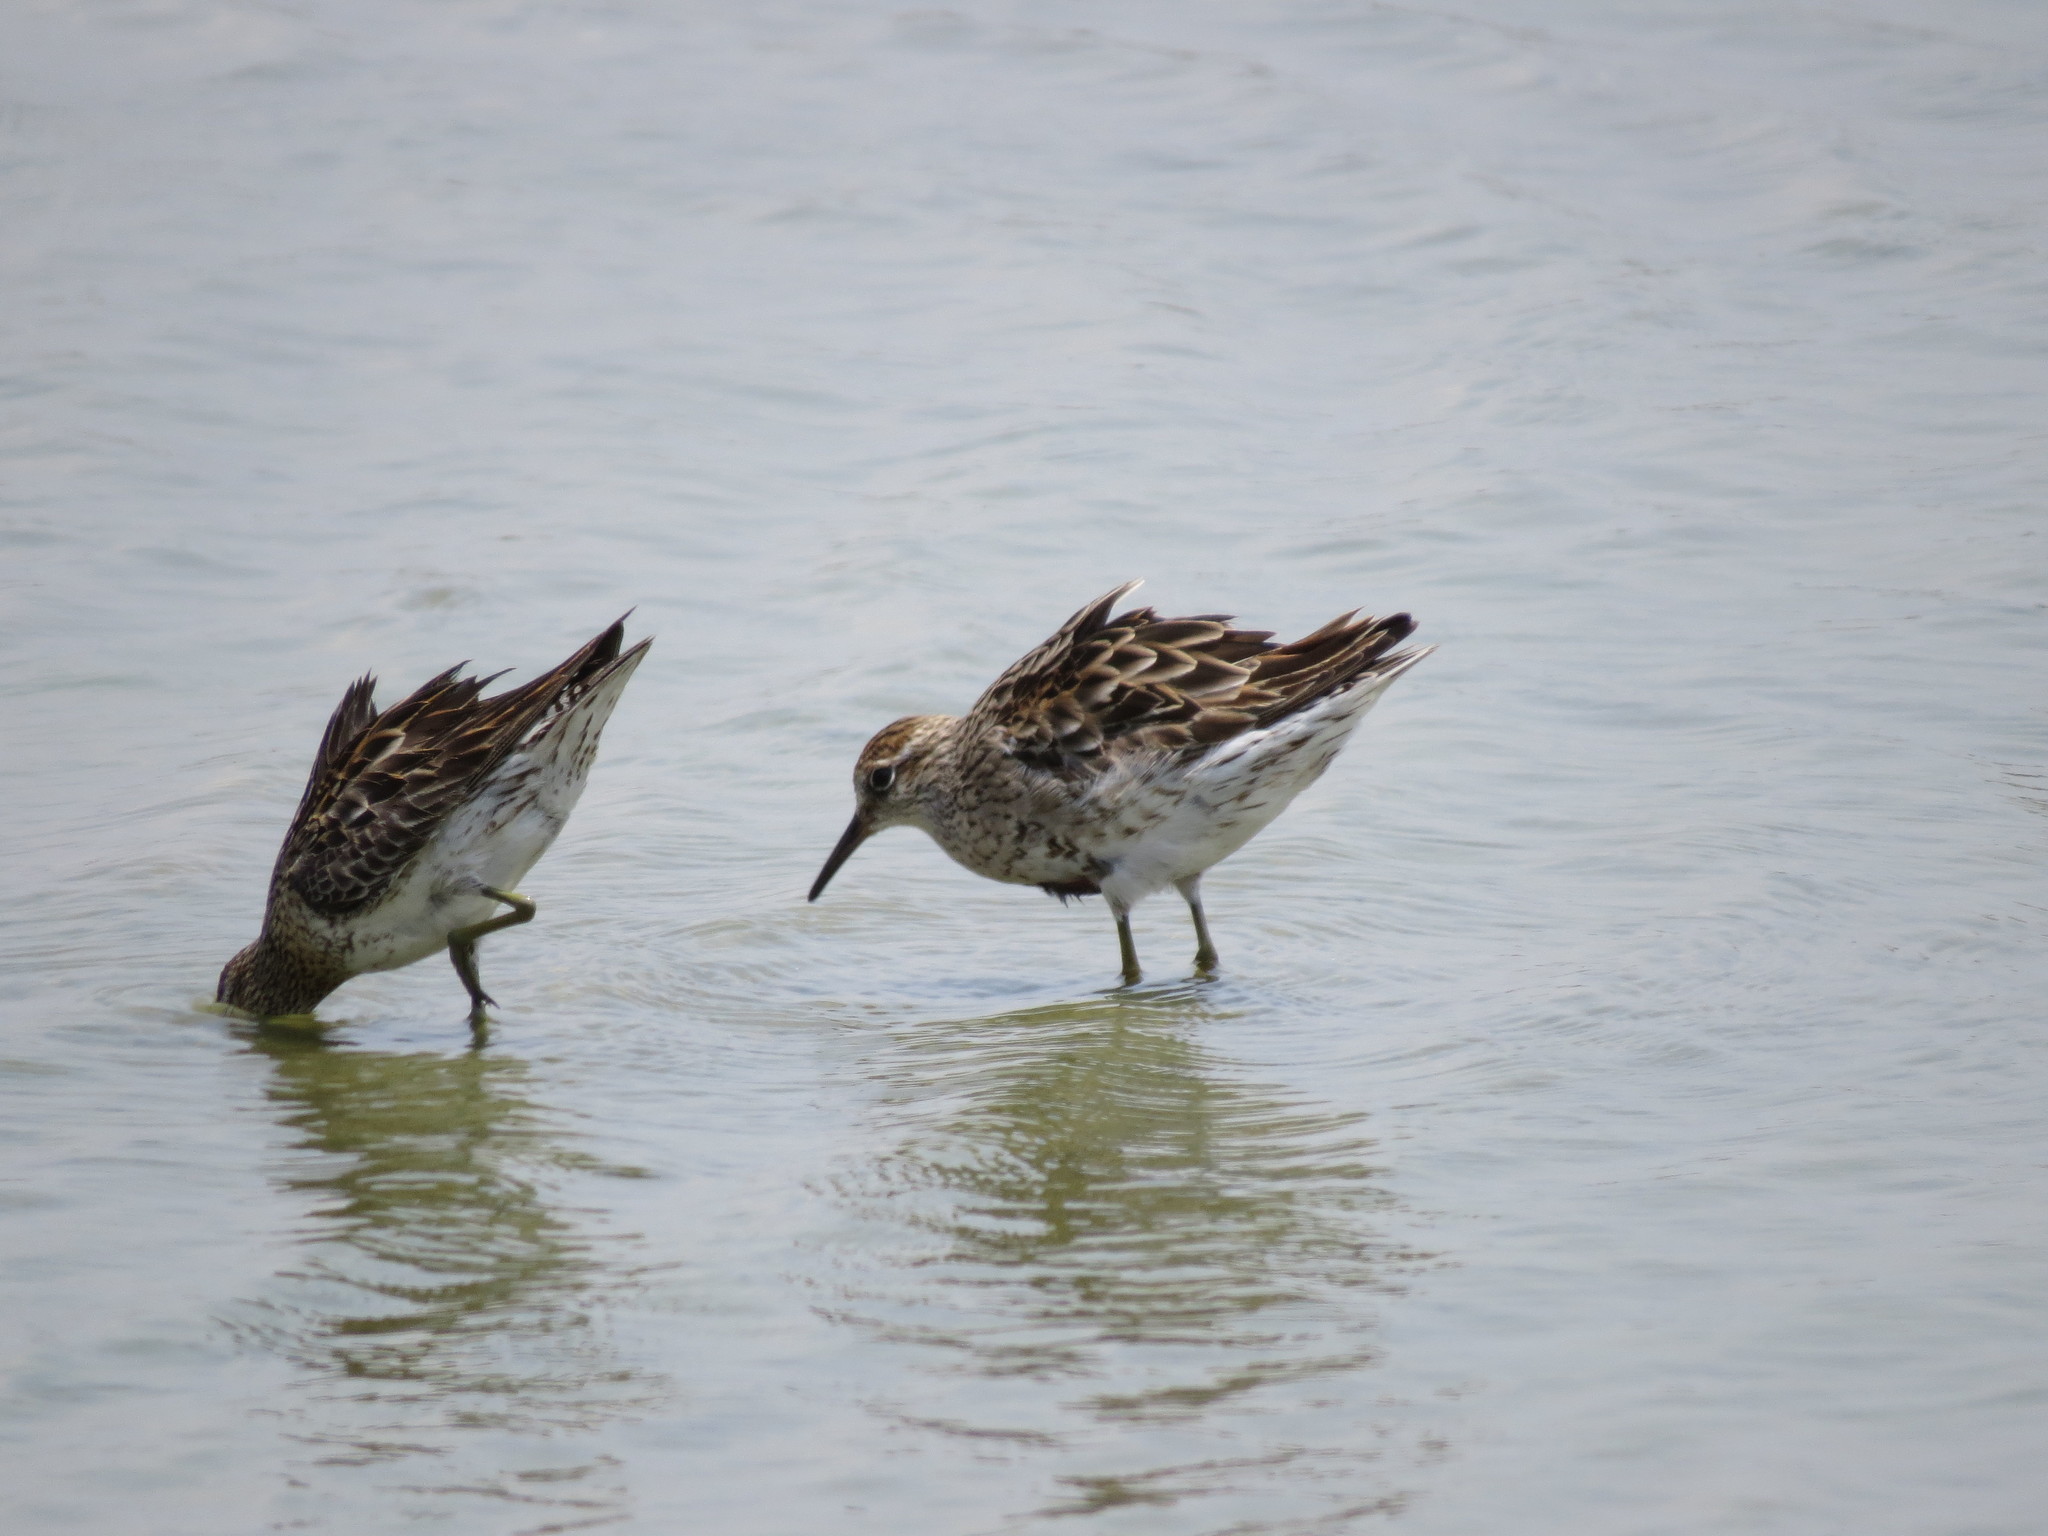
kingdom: Animalia
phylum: Chordata
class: Aves
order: Charadriiformes
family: Scolopacidae
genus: Calidris
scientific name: Calidris acuminata
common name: Sharp-tailed sandpiper
